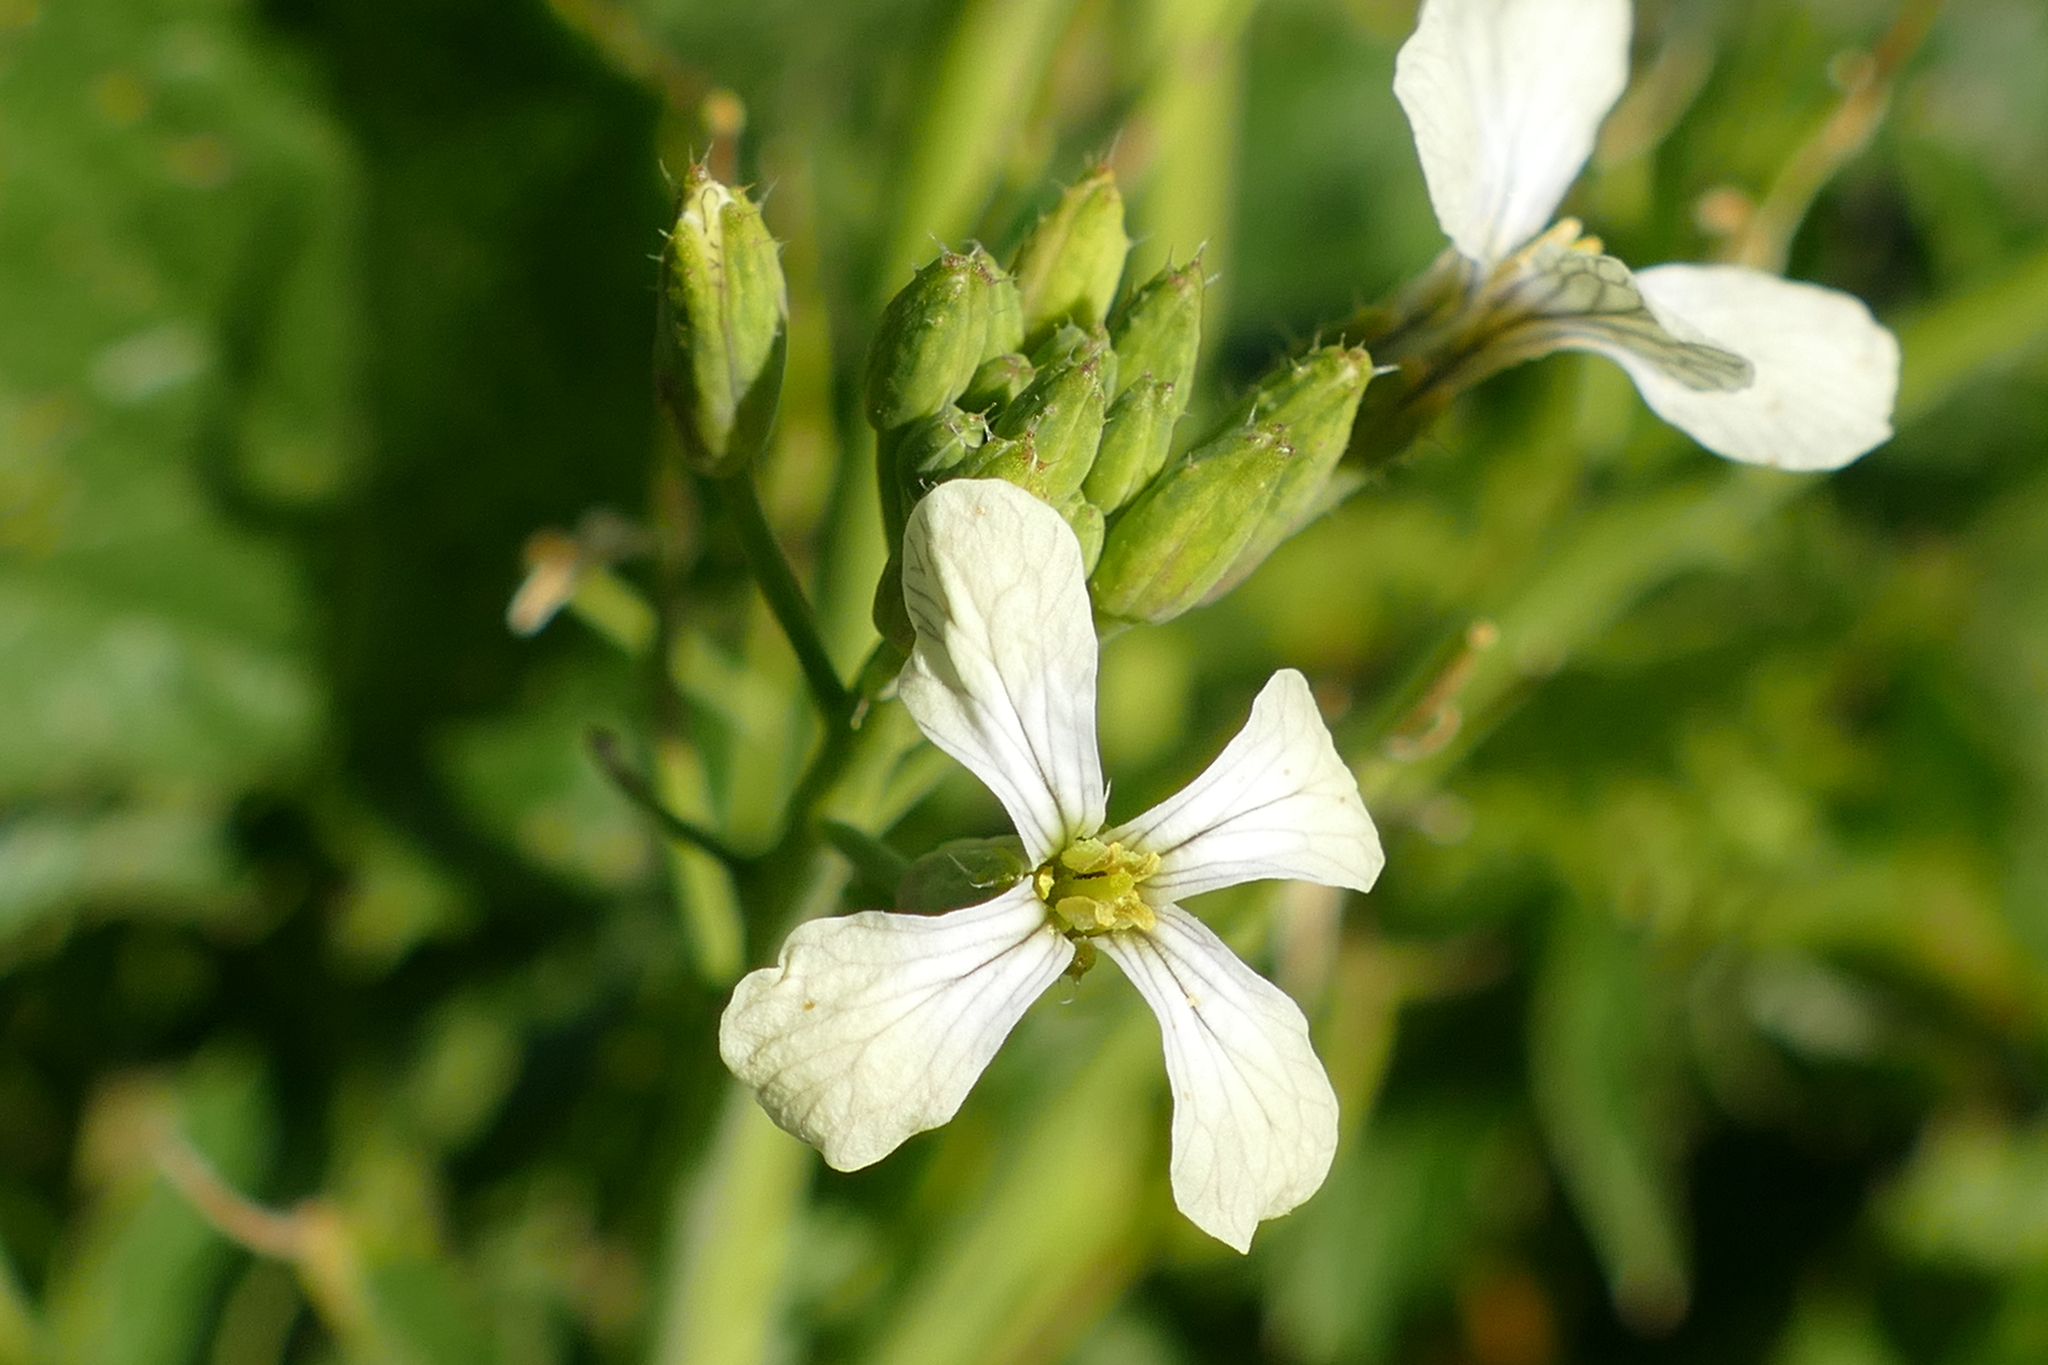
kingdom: Plantae
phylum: Tracheophyta
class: Magnoliopsida
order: Brassicales
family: Brassicaceae
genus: Raphanus
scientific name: Raphanus raphanistrum
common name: Wild radish
